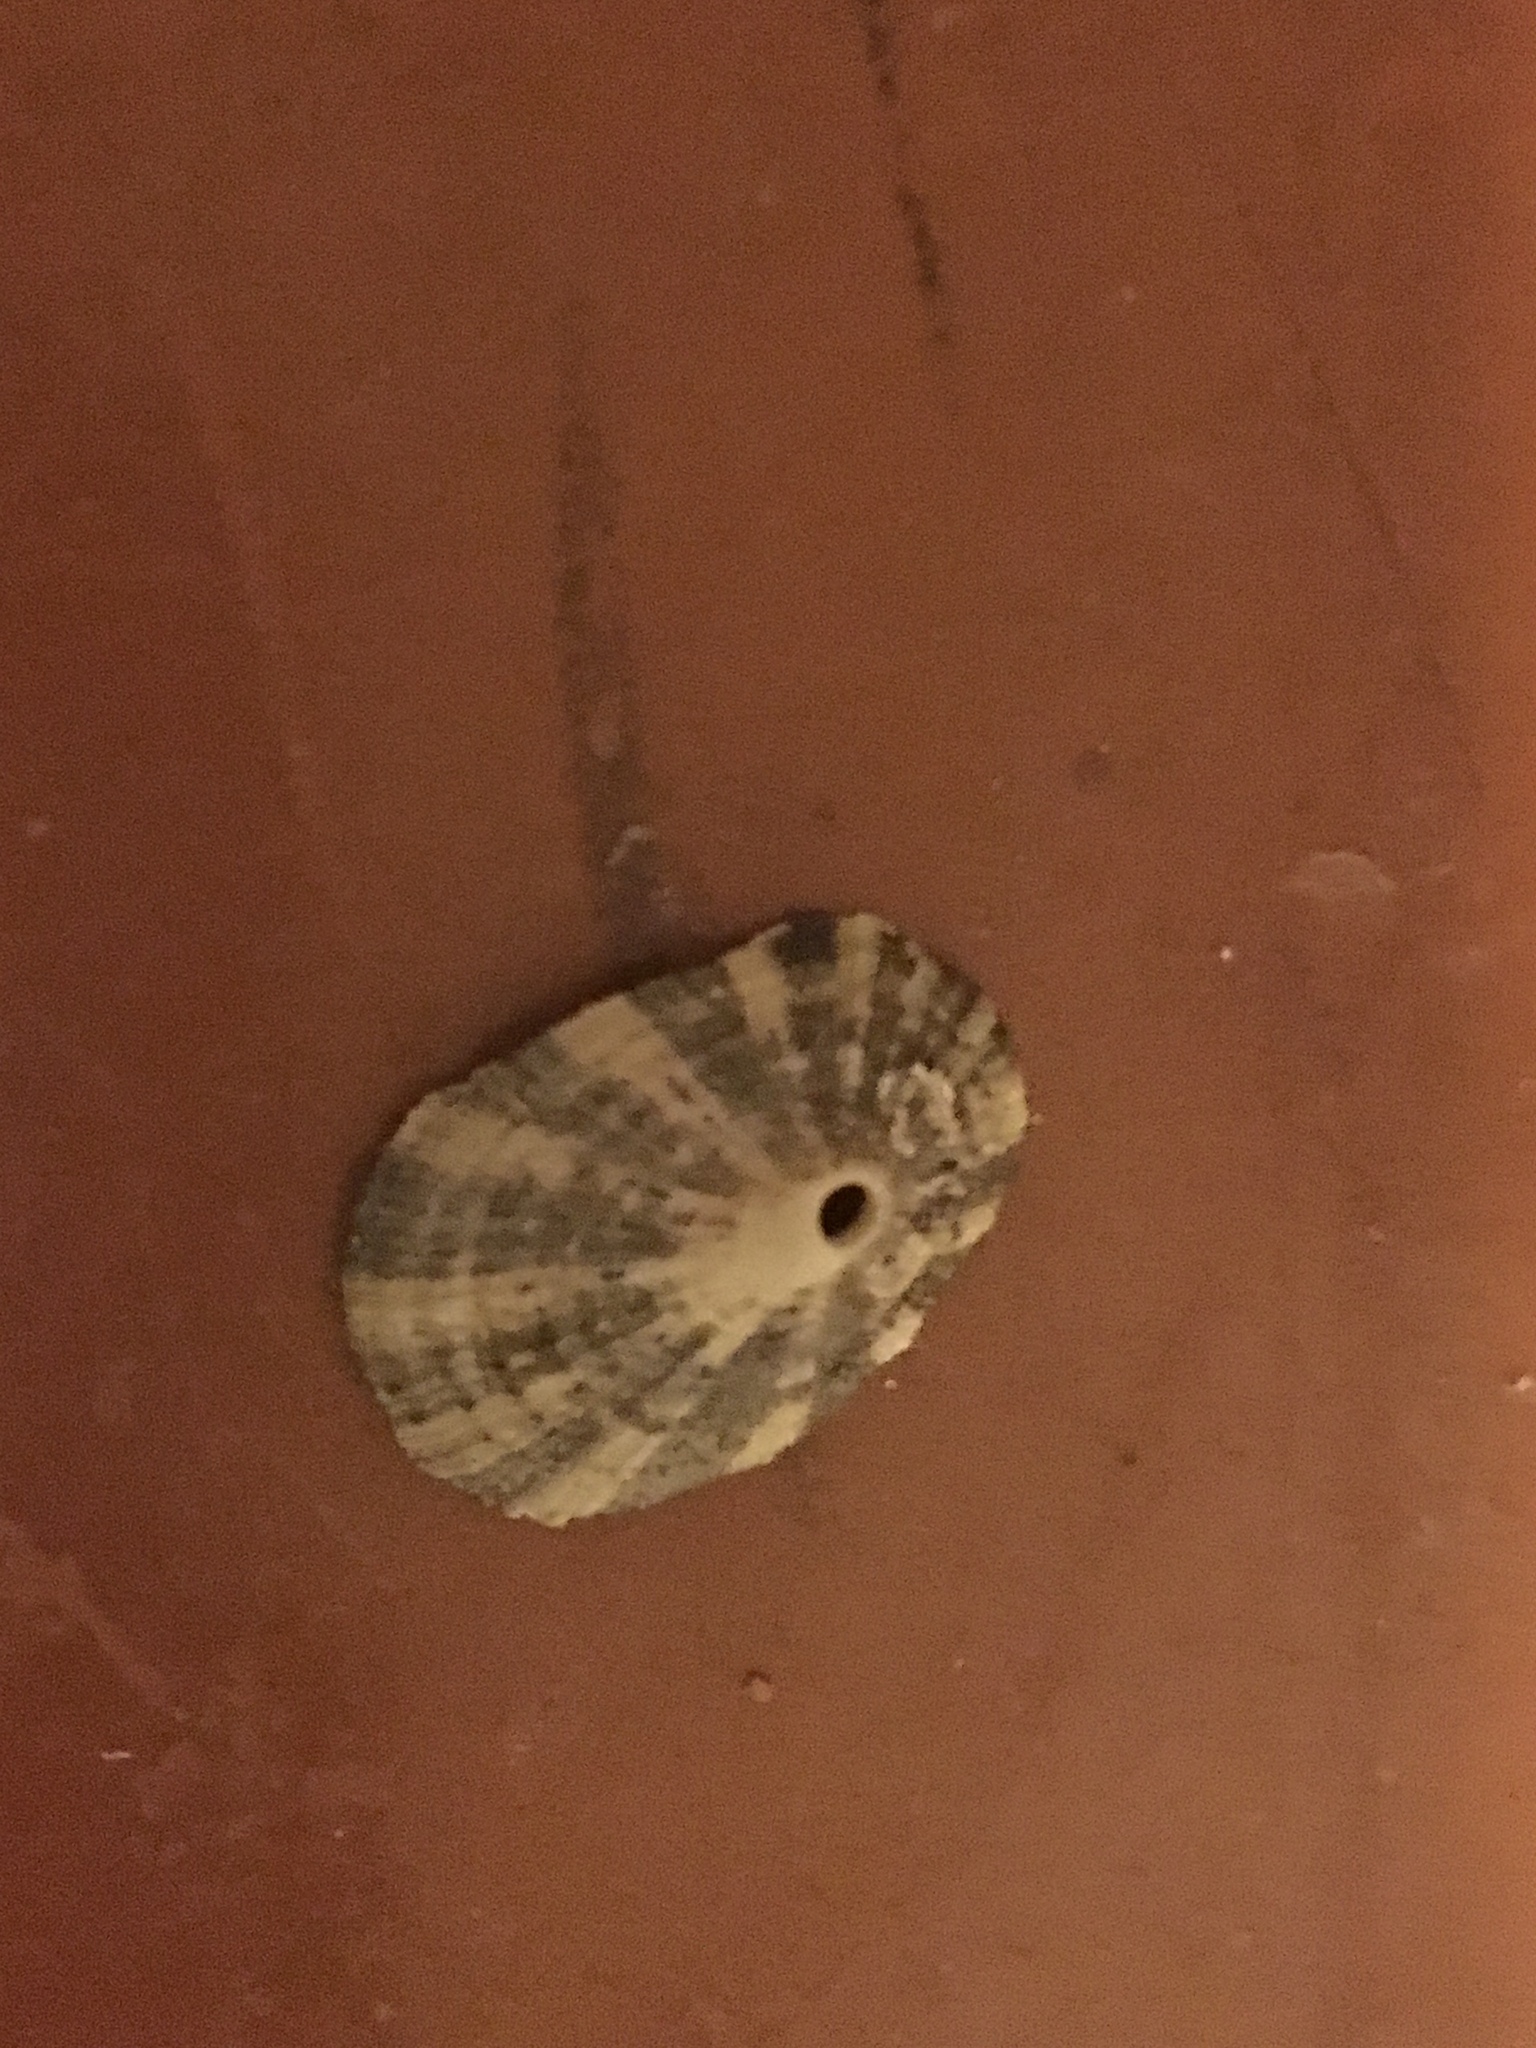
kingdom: Animalia
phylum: Mollusca
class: Gastropoda
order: Lepetellida
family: Fissurellidae
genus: Diodora
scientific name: Diodora aspera
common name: Rough keyhole limpet
